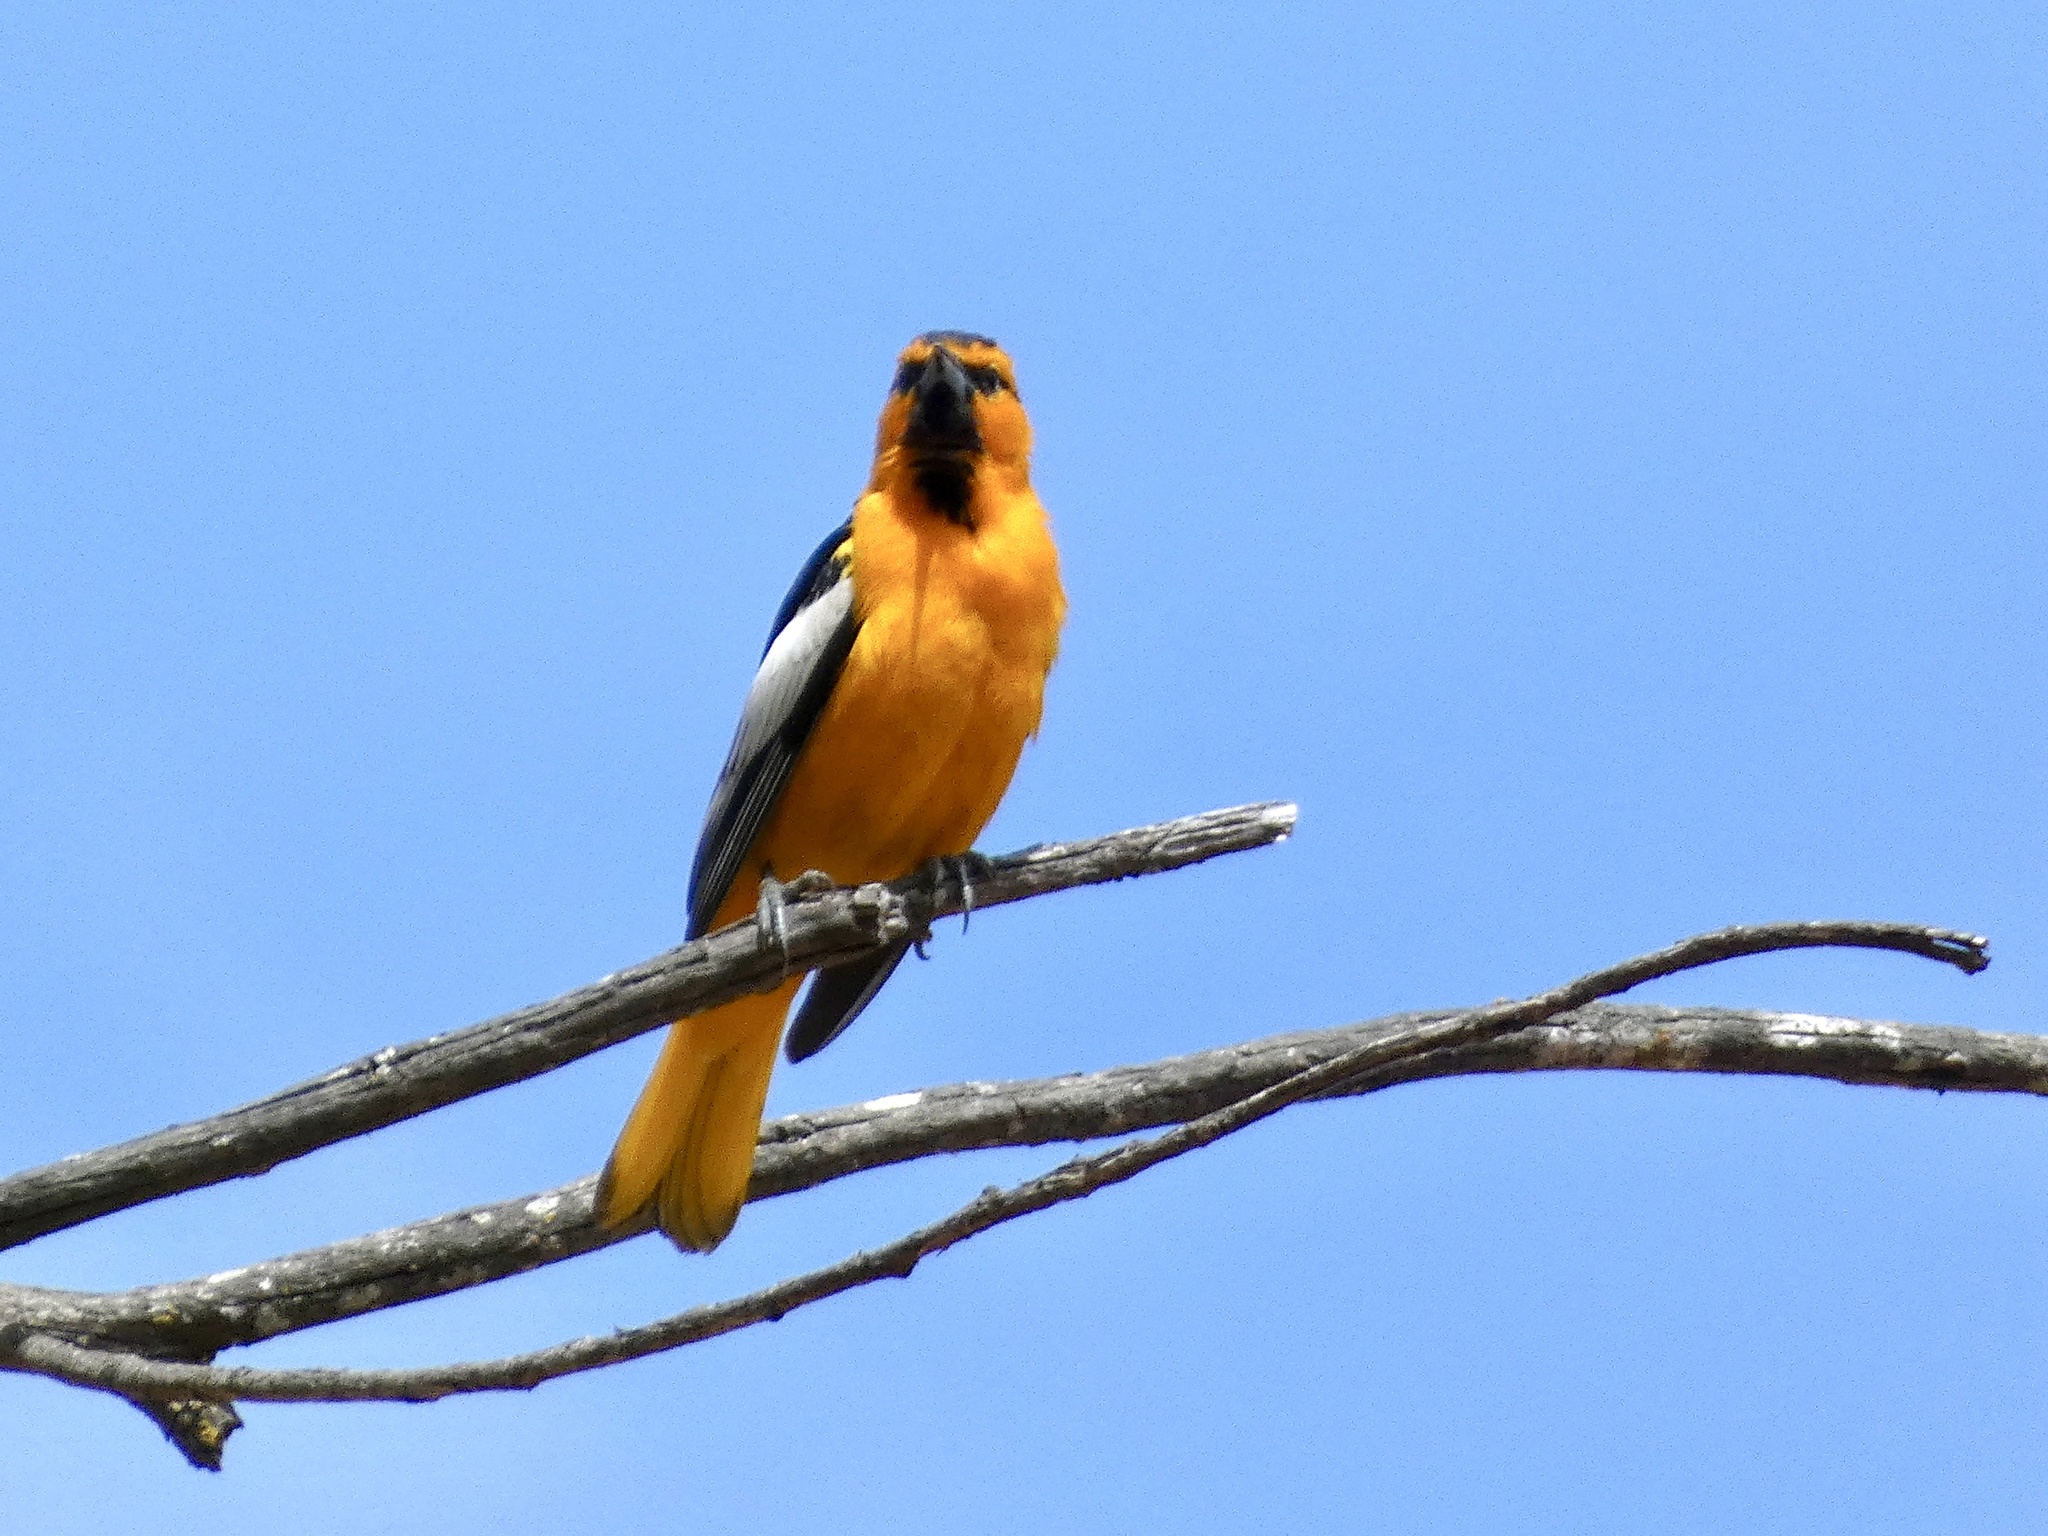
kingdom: Animalia
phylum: Chordata
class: Aves
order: Passeriformes
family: Icteridae
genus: Icterus
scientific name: Icterus bullockii
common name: Bullock's oriole
